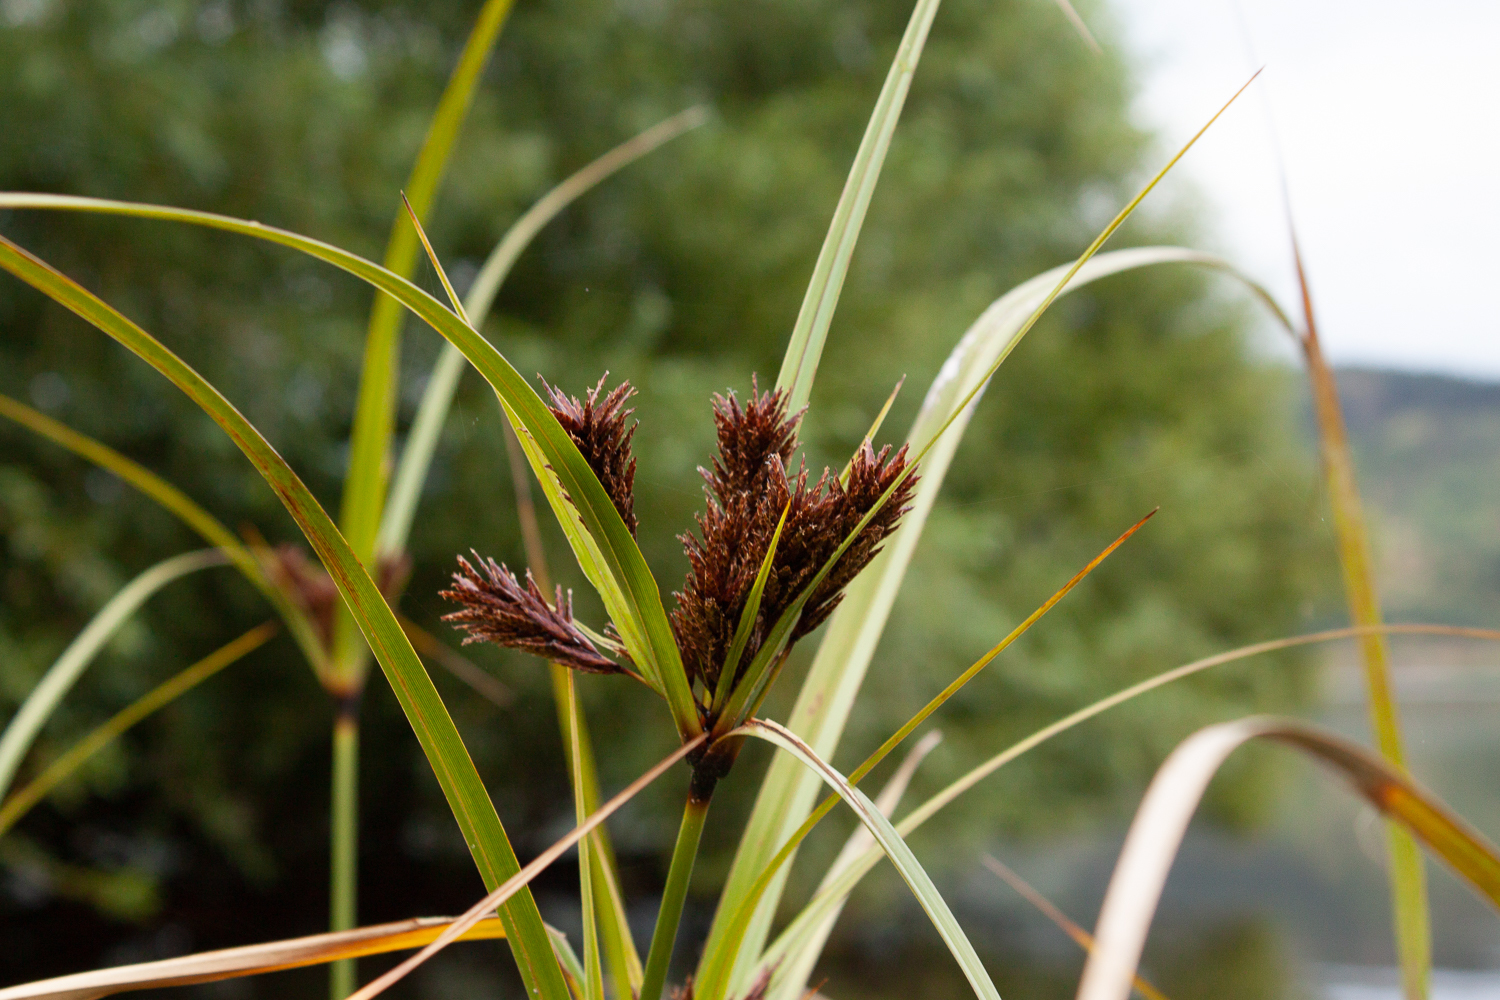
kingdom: Plantae
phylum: Tracheophyta
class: Liliopsida
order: Poales
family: Cyperaceae
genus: Cyperus
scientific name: Cyperus ustulatus
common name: Giant umbrella-sedge
